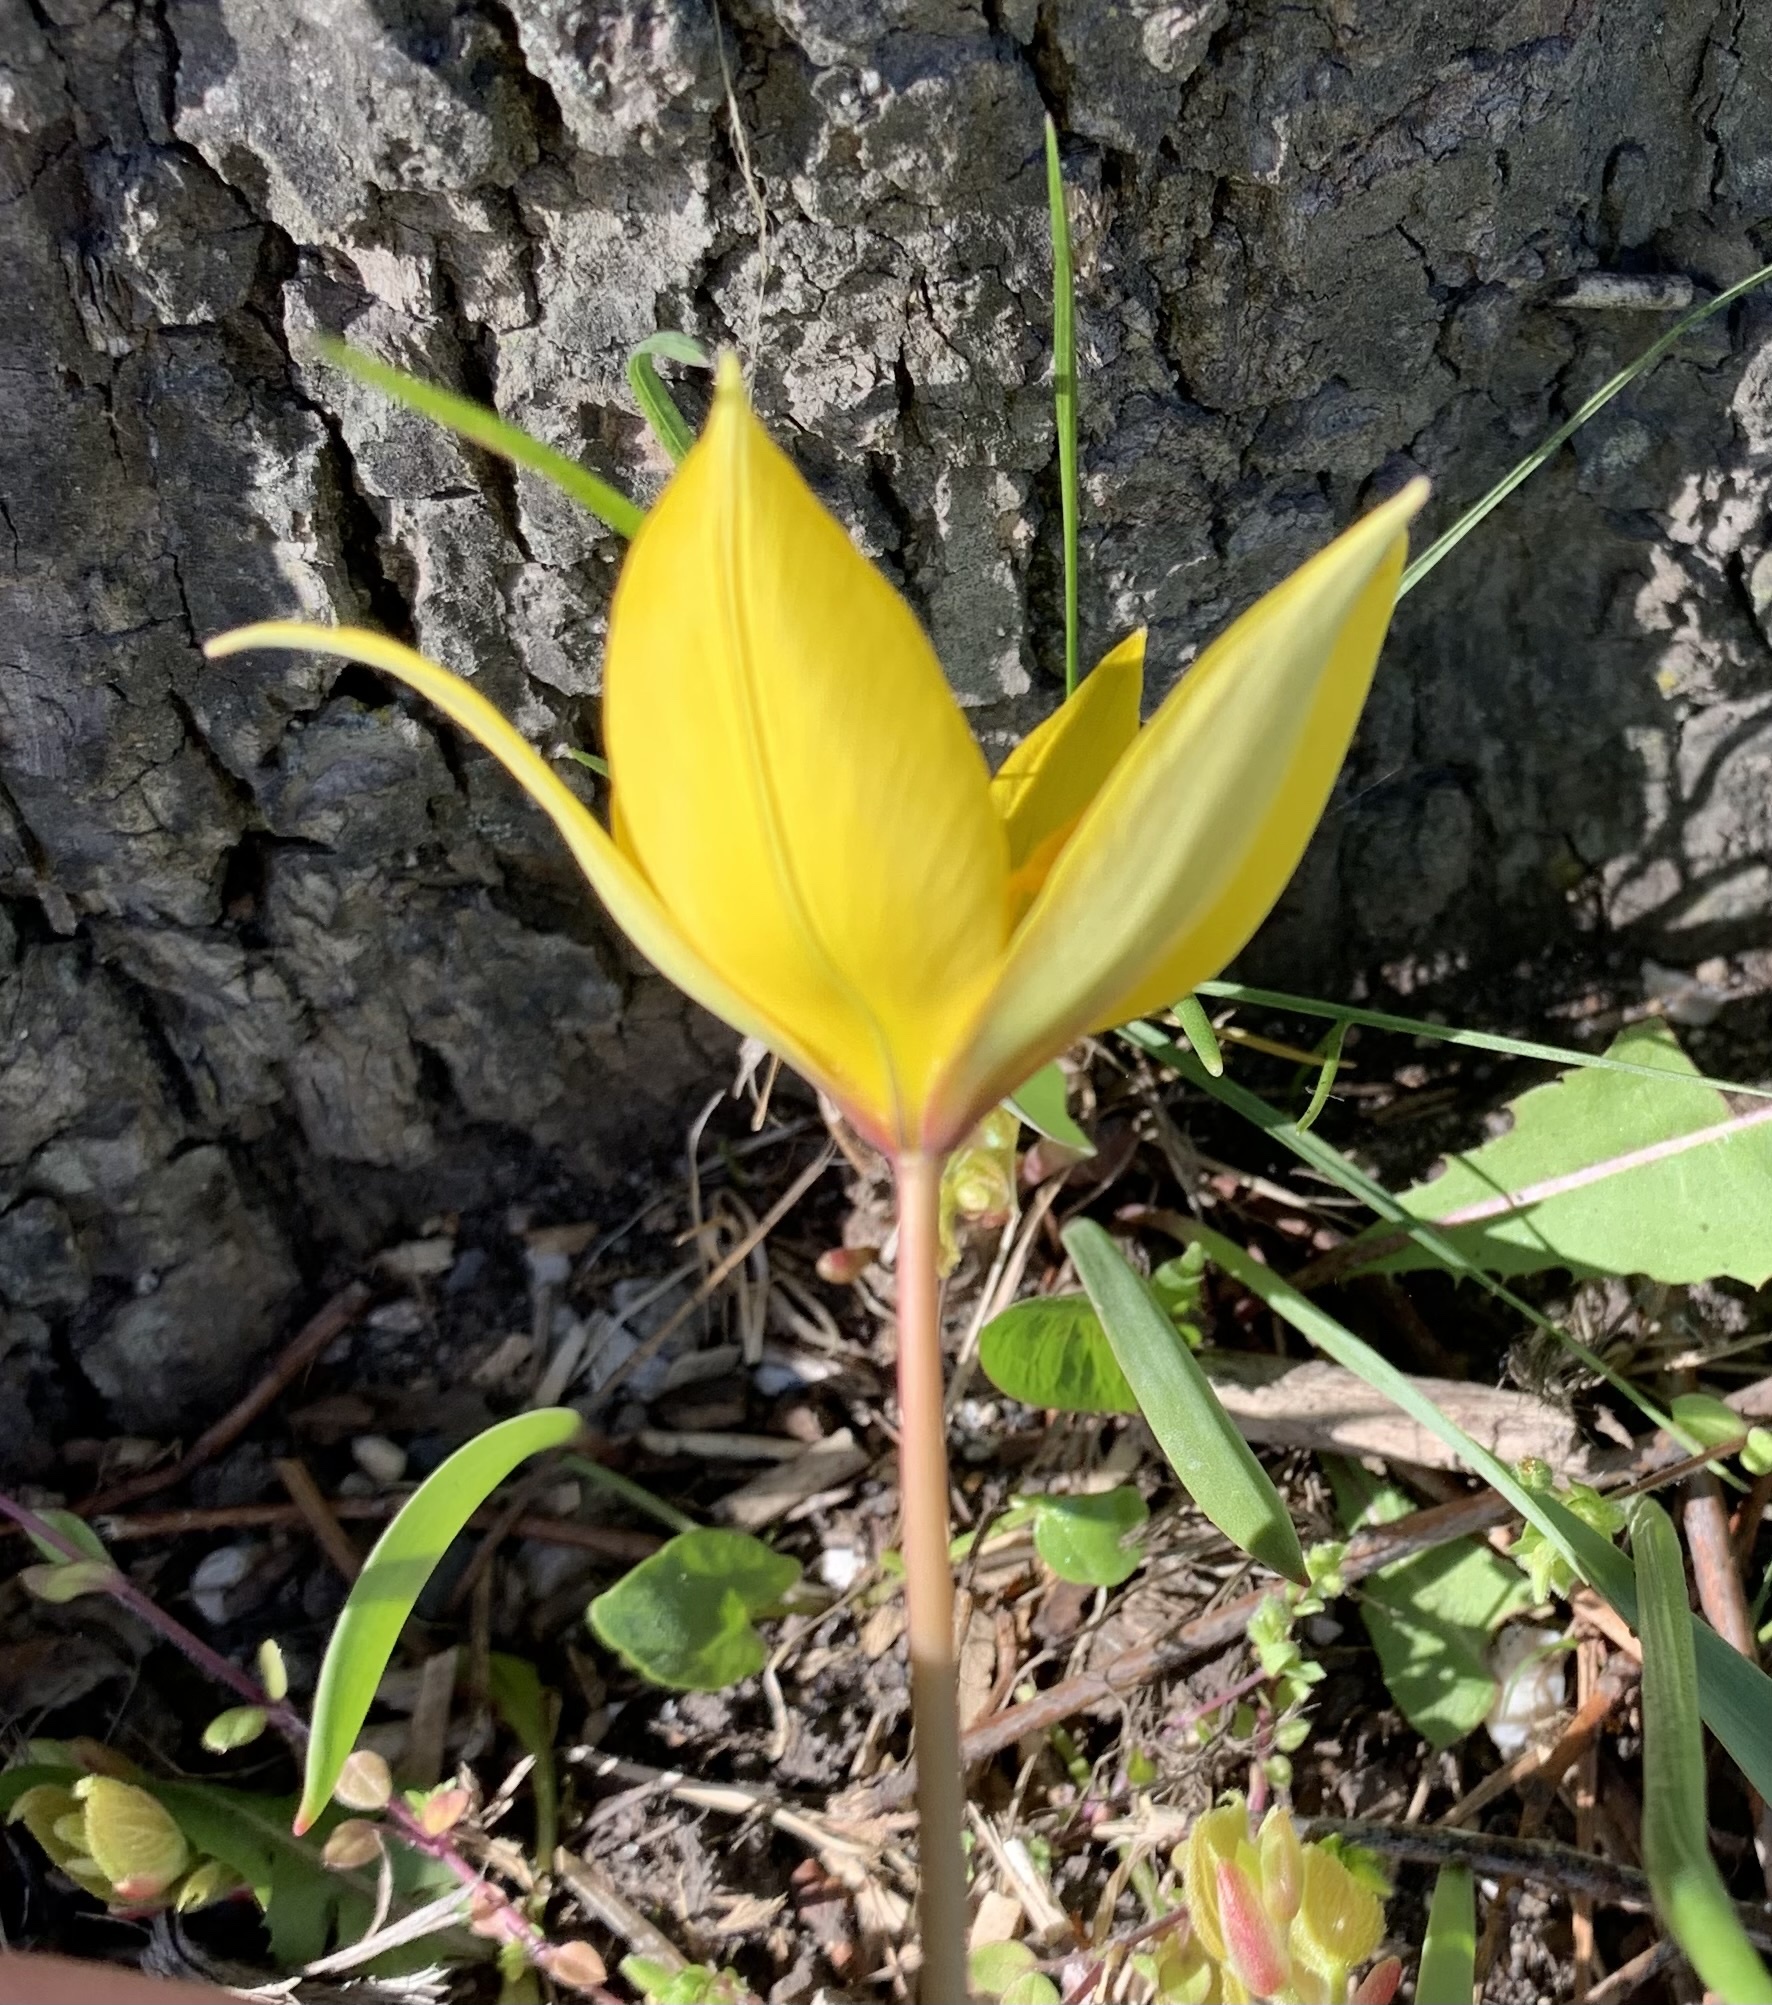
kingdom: Plantae
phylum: Tracheophyta
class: Liliopsida
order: Liliales
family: Liliaceae
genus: Tulipa
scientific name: Tulipa sylvestris
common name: Wild tulip
